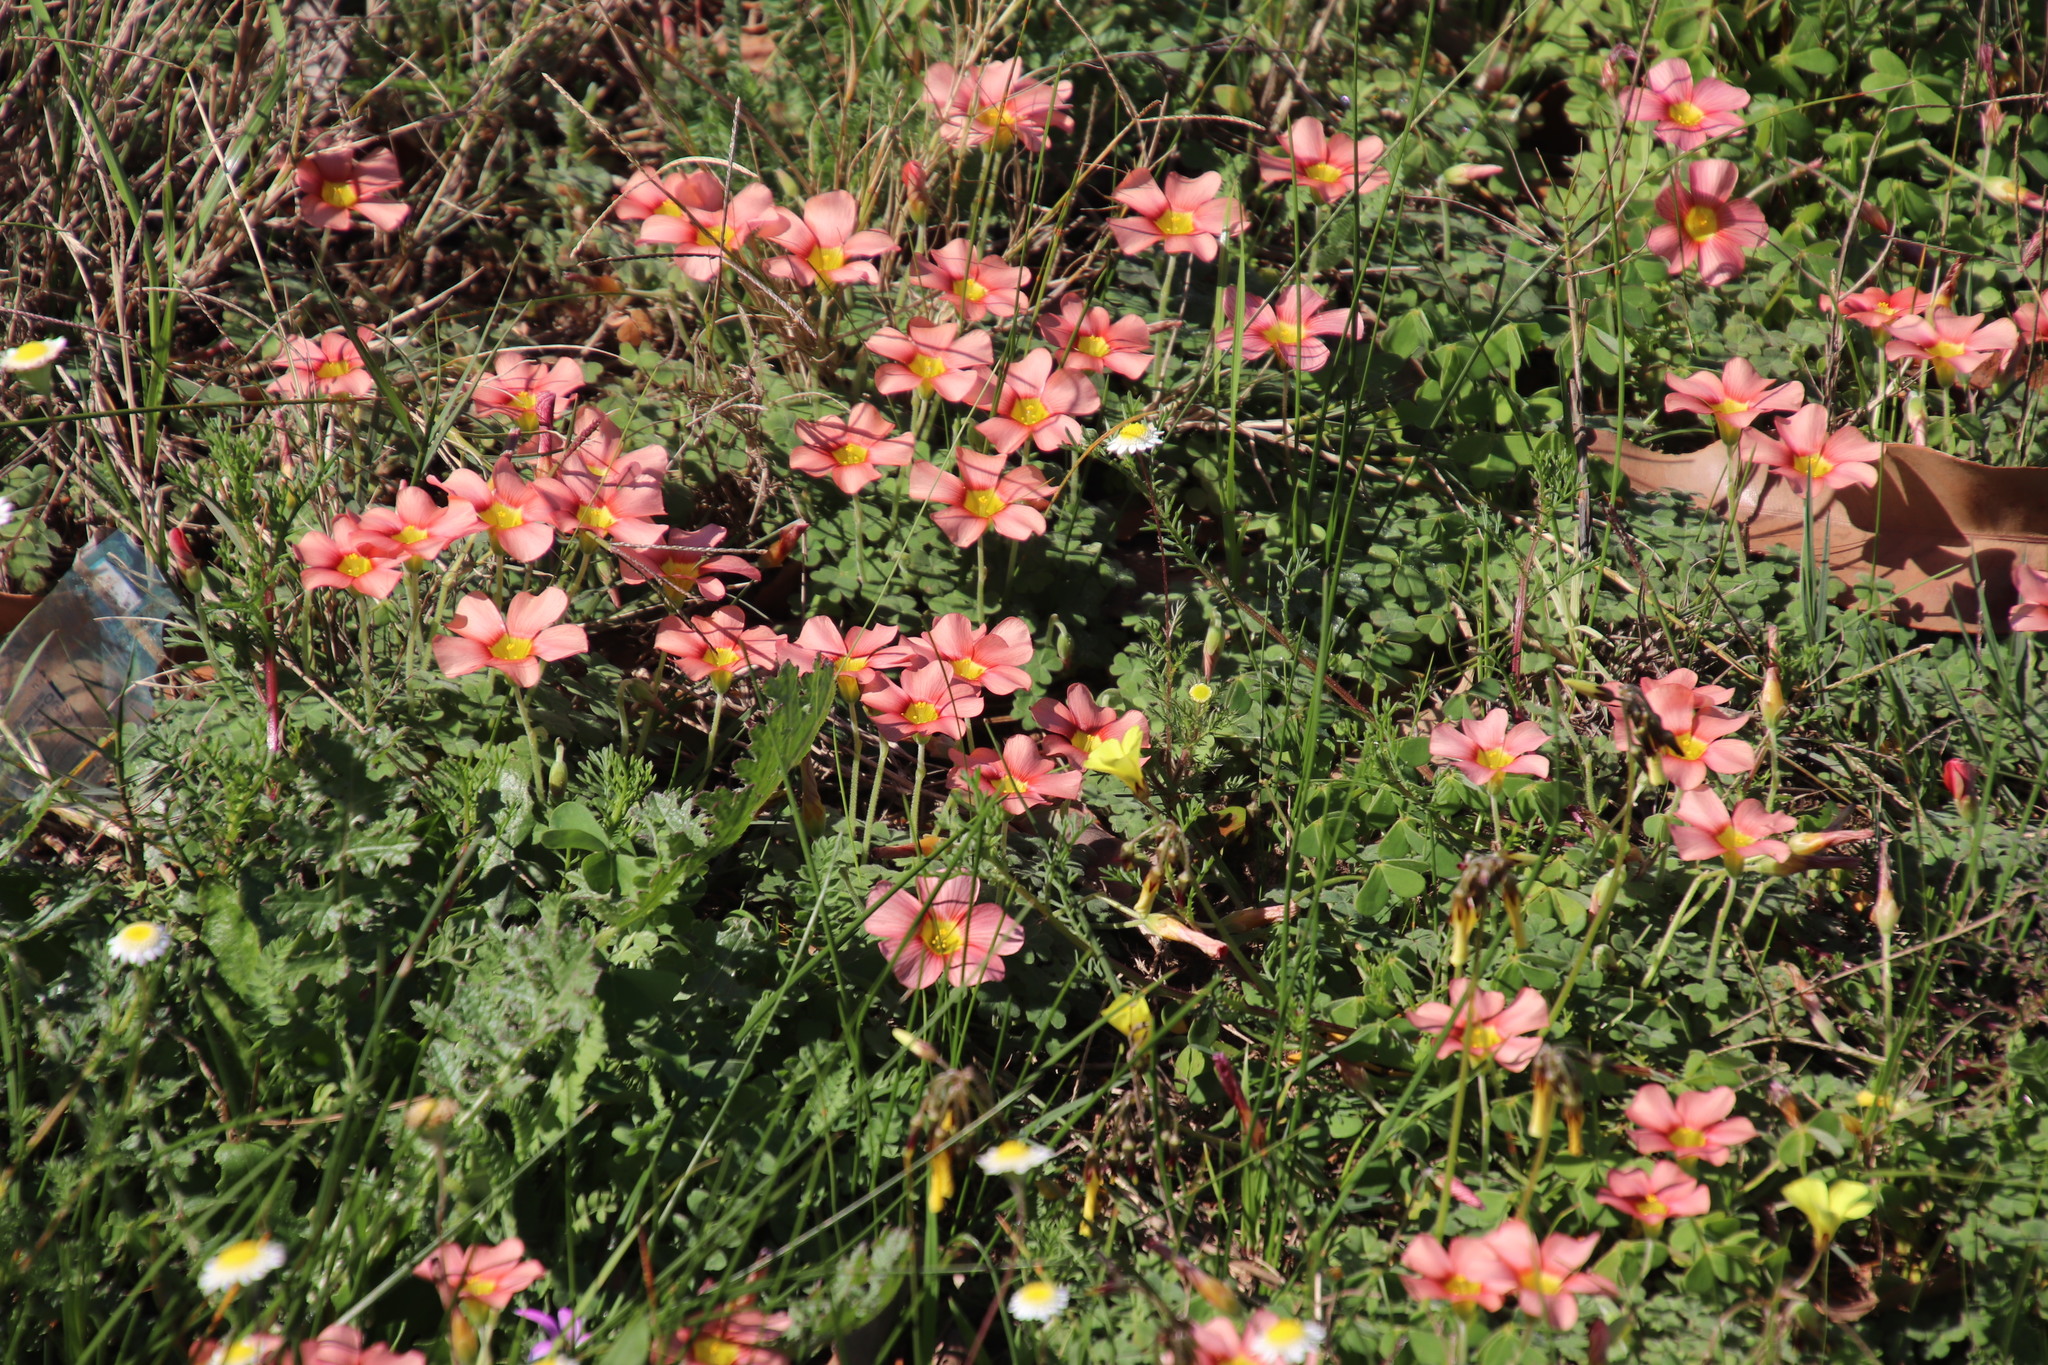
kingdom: Plantae
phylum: Tracheophyta
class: Magnoliopsida
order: Oxalidales
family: Oxalidaceae
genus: Oxalis
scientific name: Oxalis obtusa
